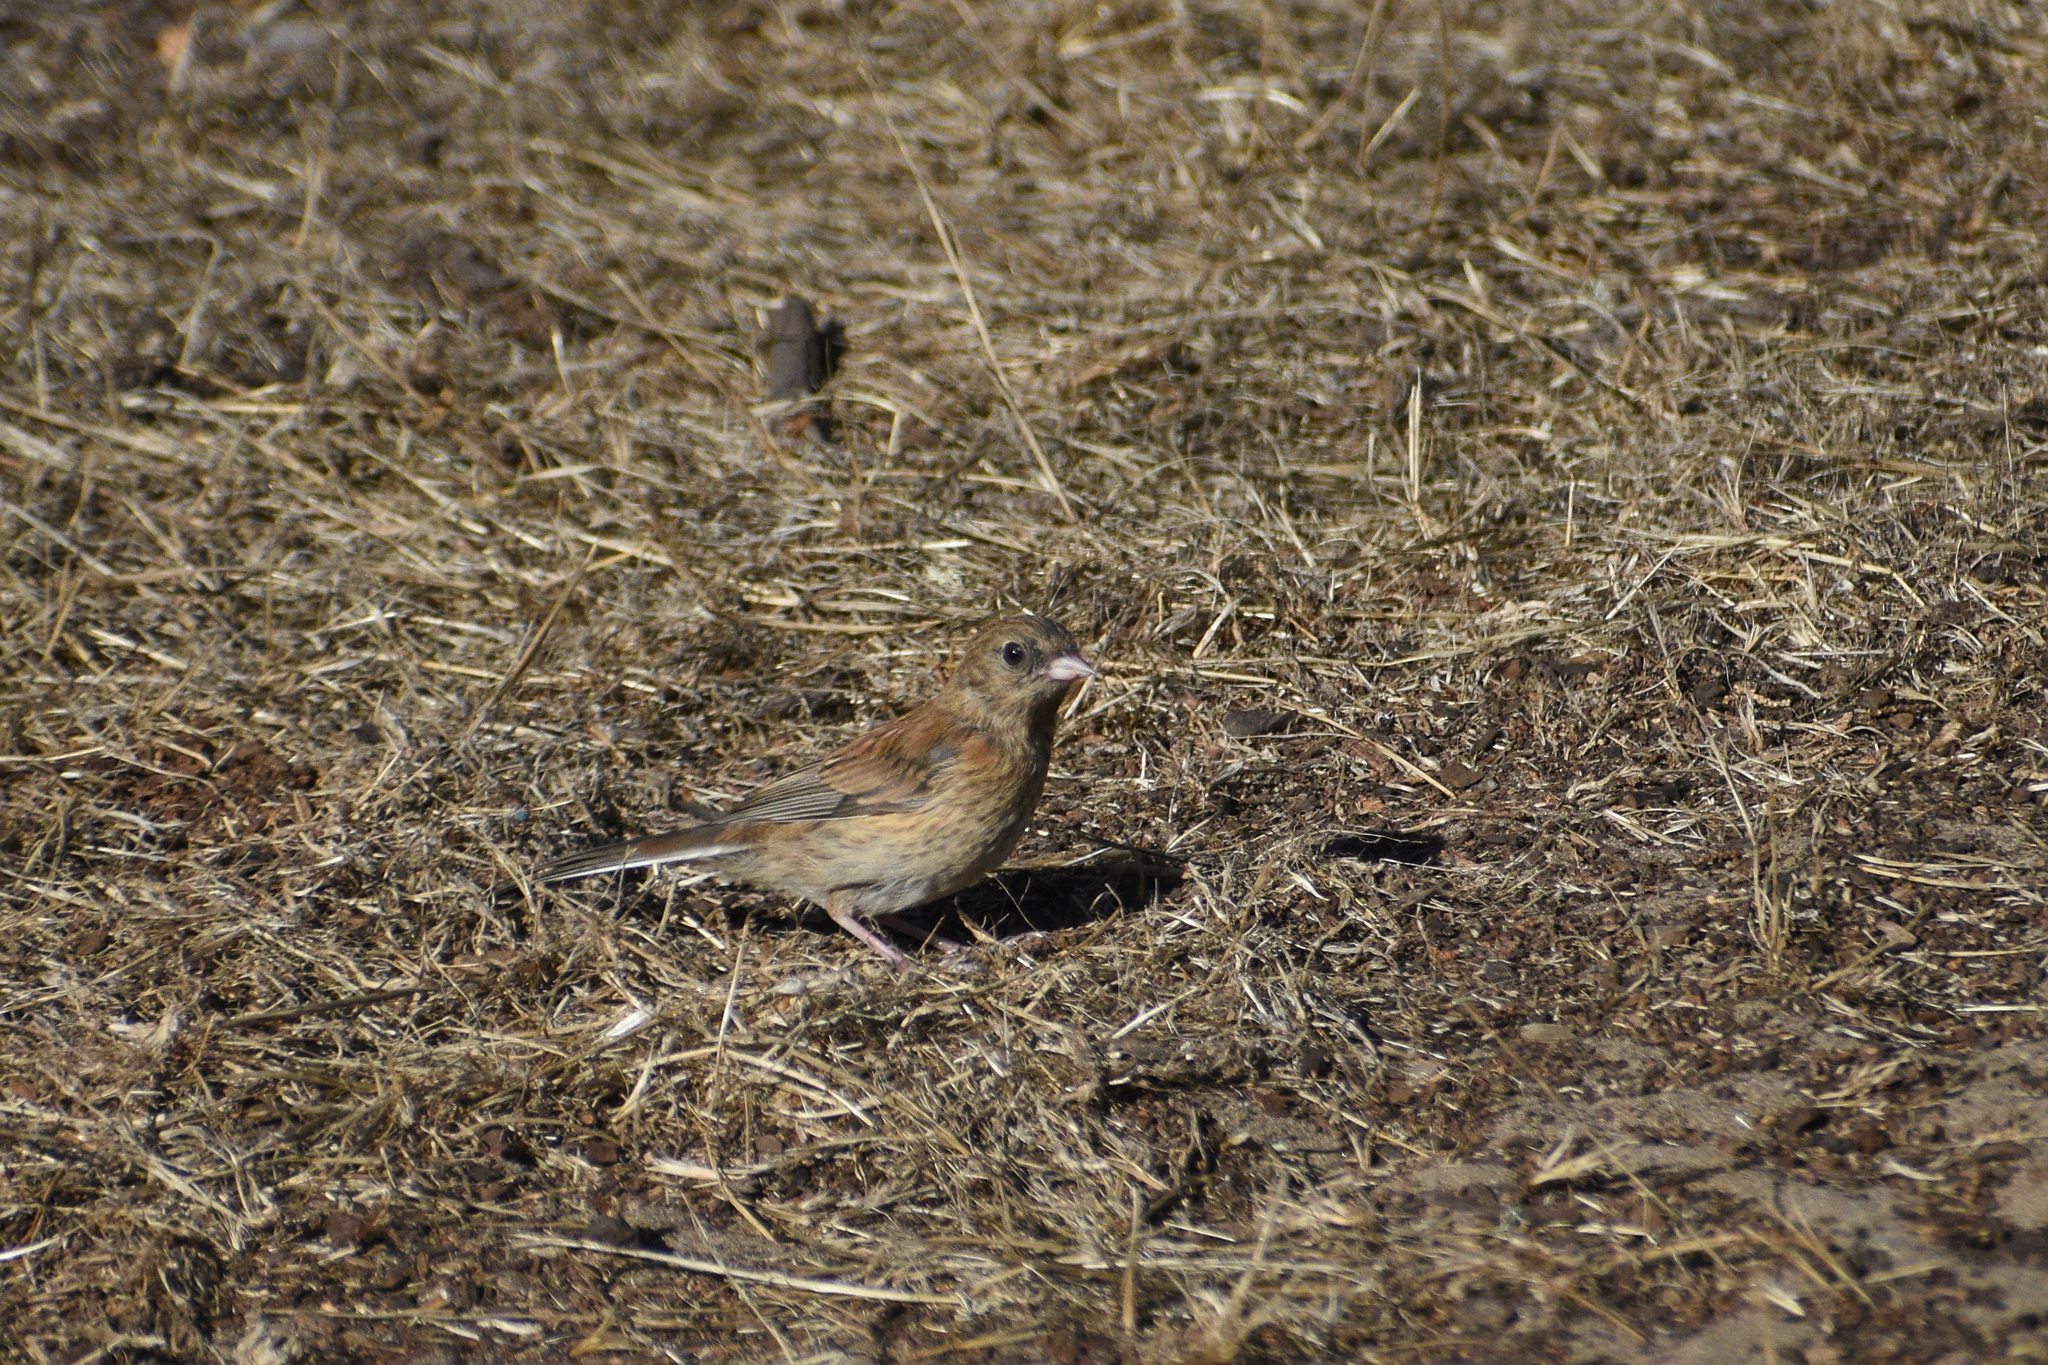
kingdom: Animalia
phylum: Chordata
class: Aves
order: Passeriformes
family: Passerellidae
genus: Junco
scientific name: Junco hyemalis
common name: Dark-eyed junco
